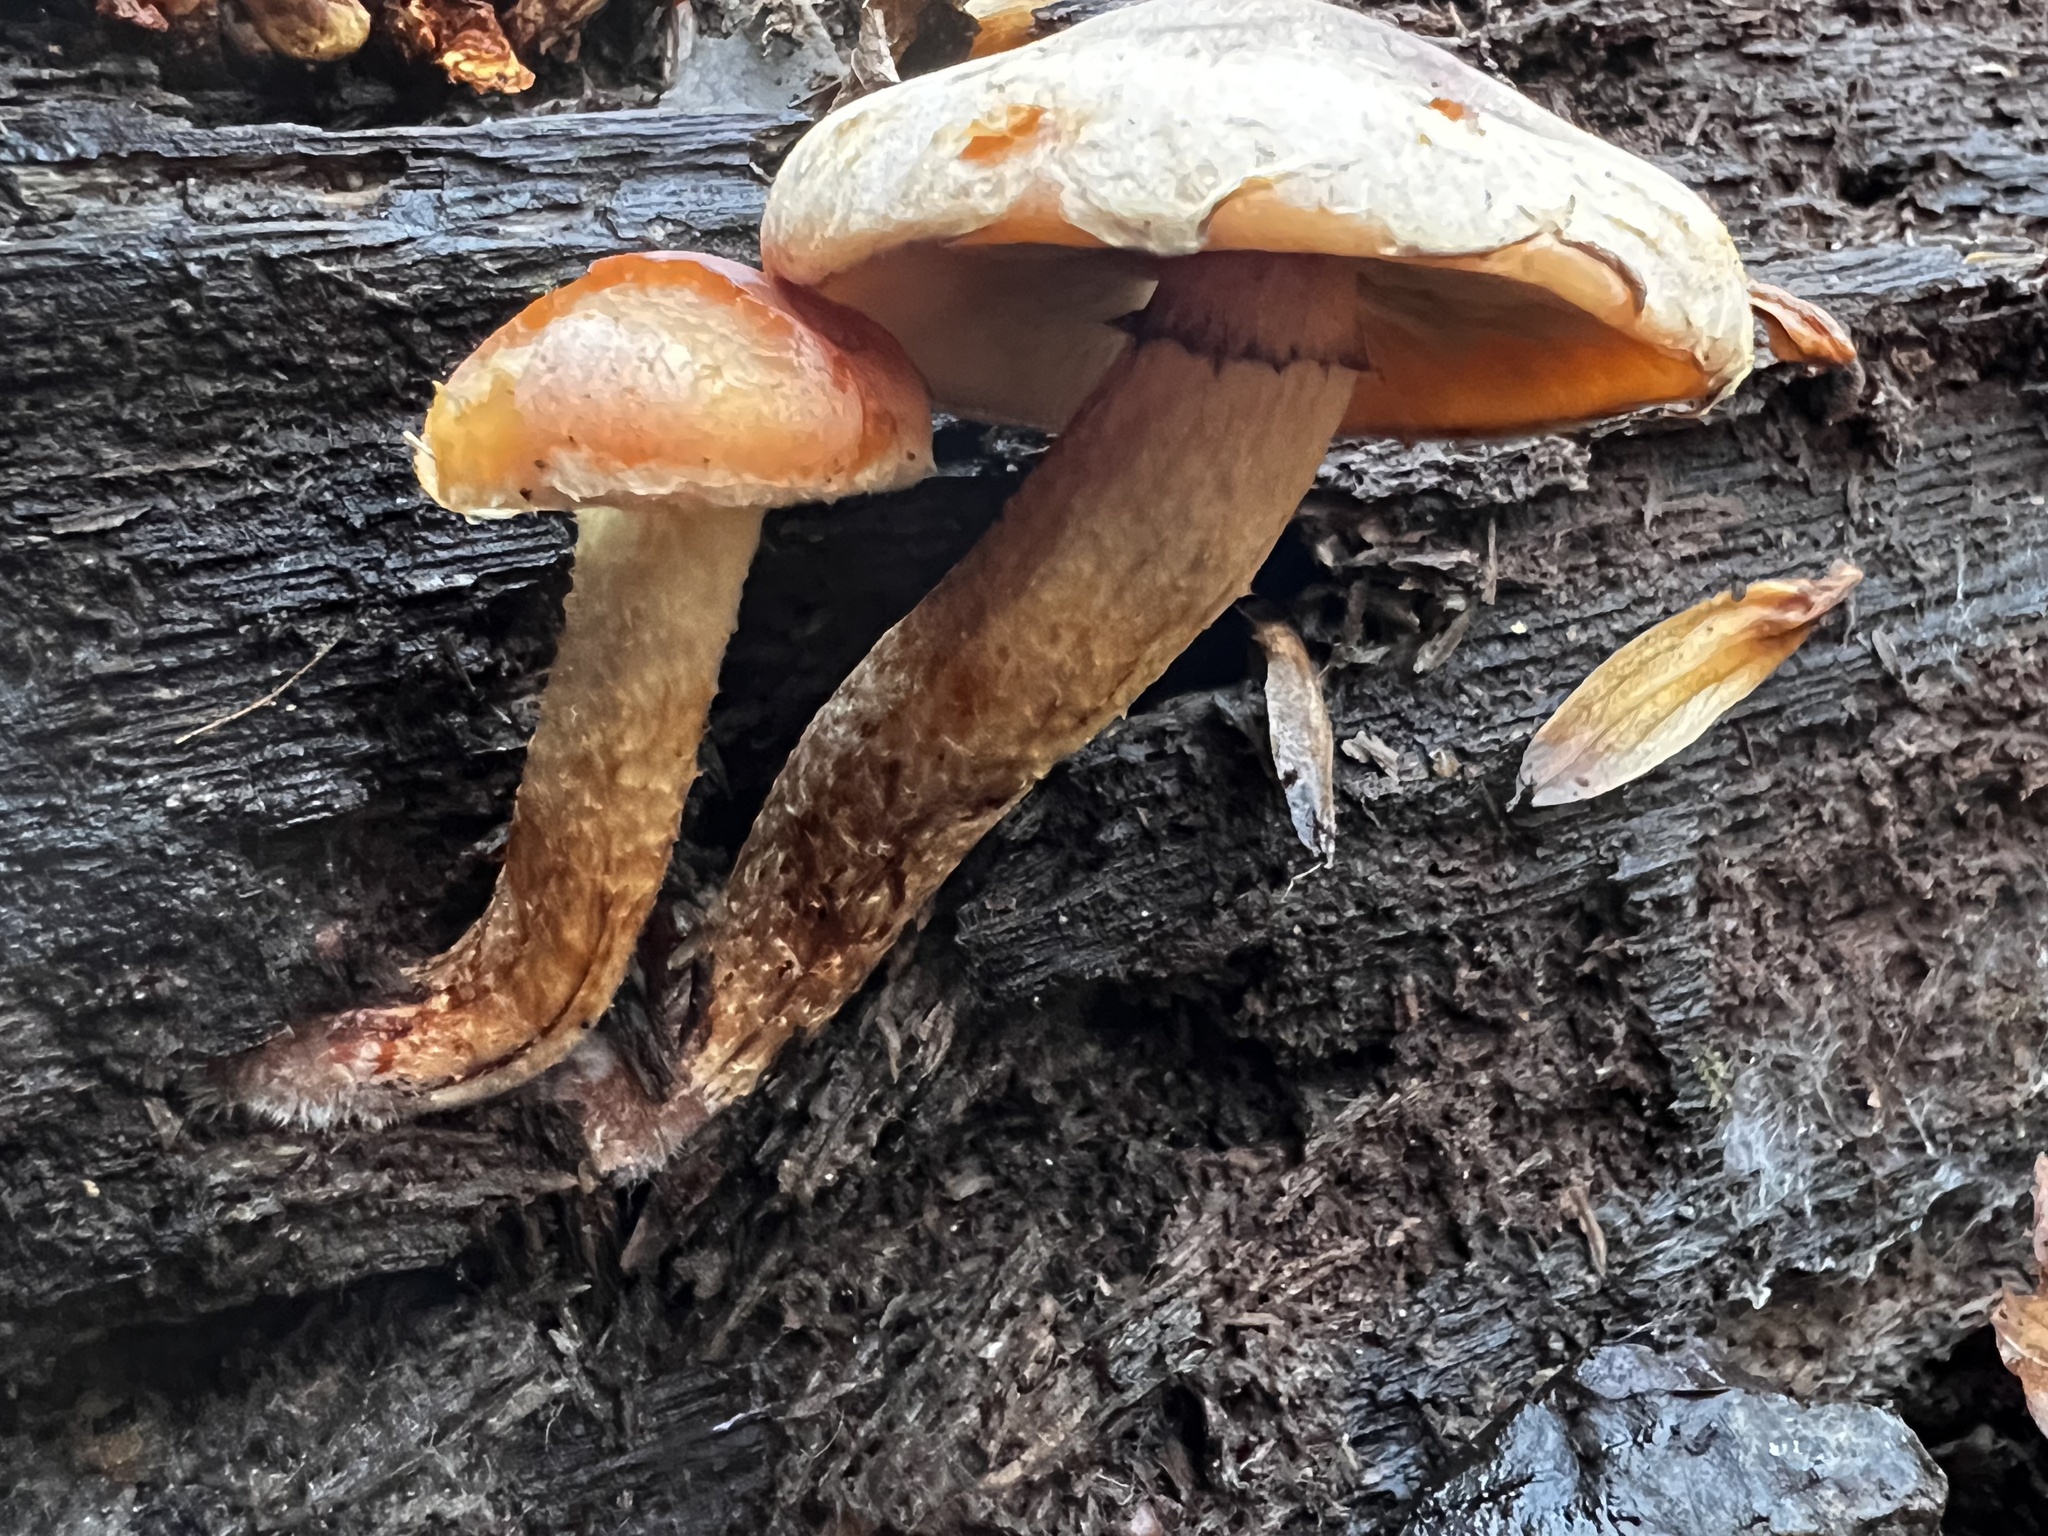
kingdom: Fungi
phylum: Basidiomycota
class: Agaricomycetes
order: Agaricales
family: Strophariaceae
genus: Hypholoma
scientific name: Hypholoma lateritium
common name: Brick caps
